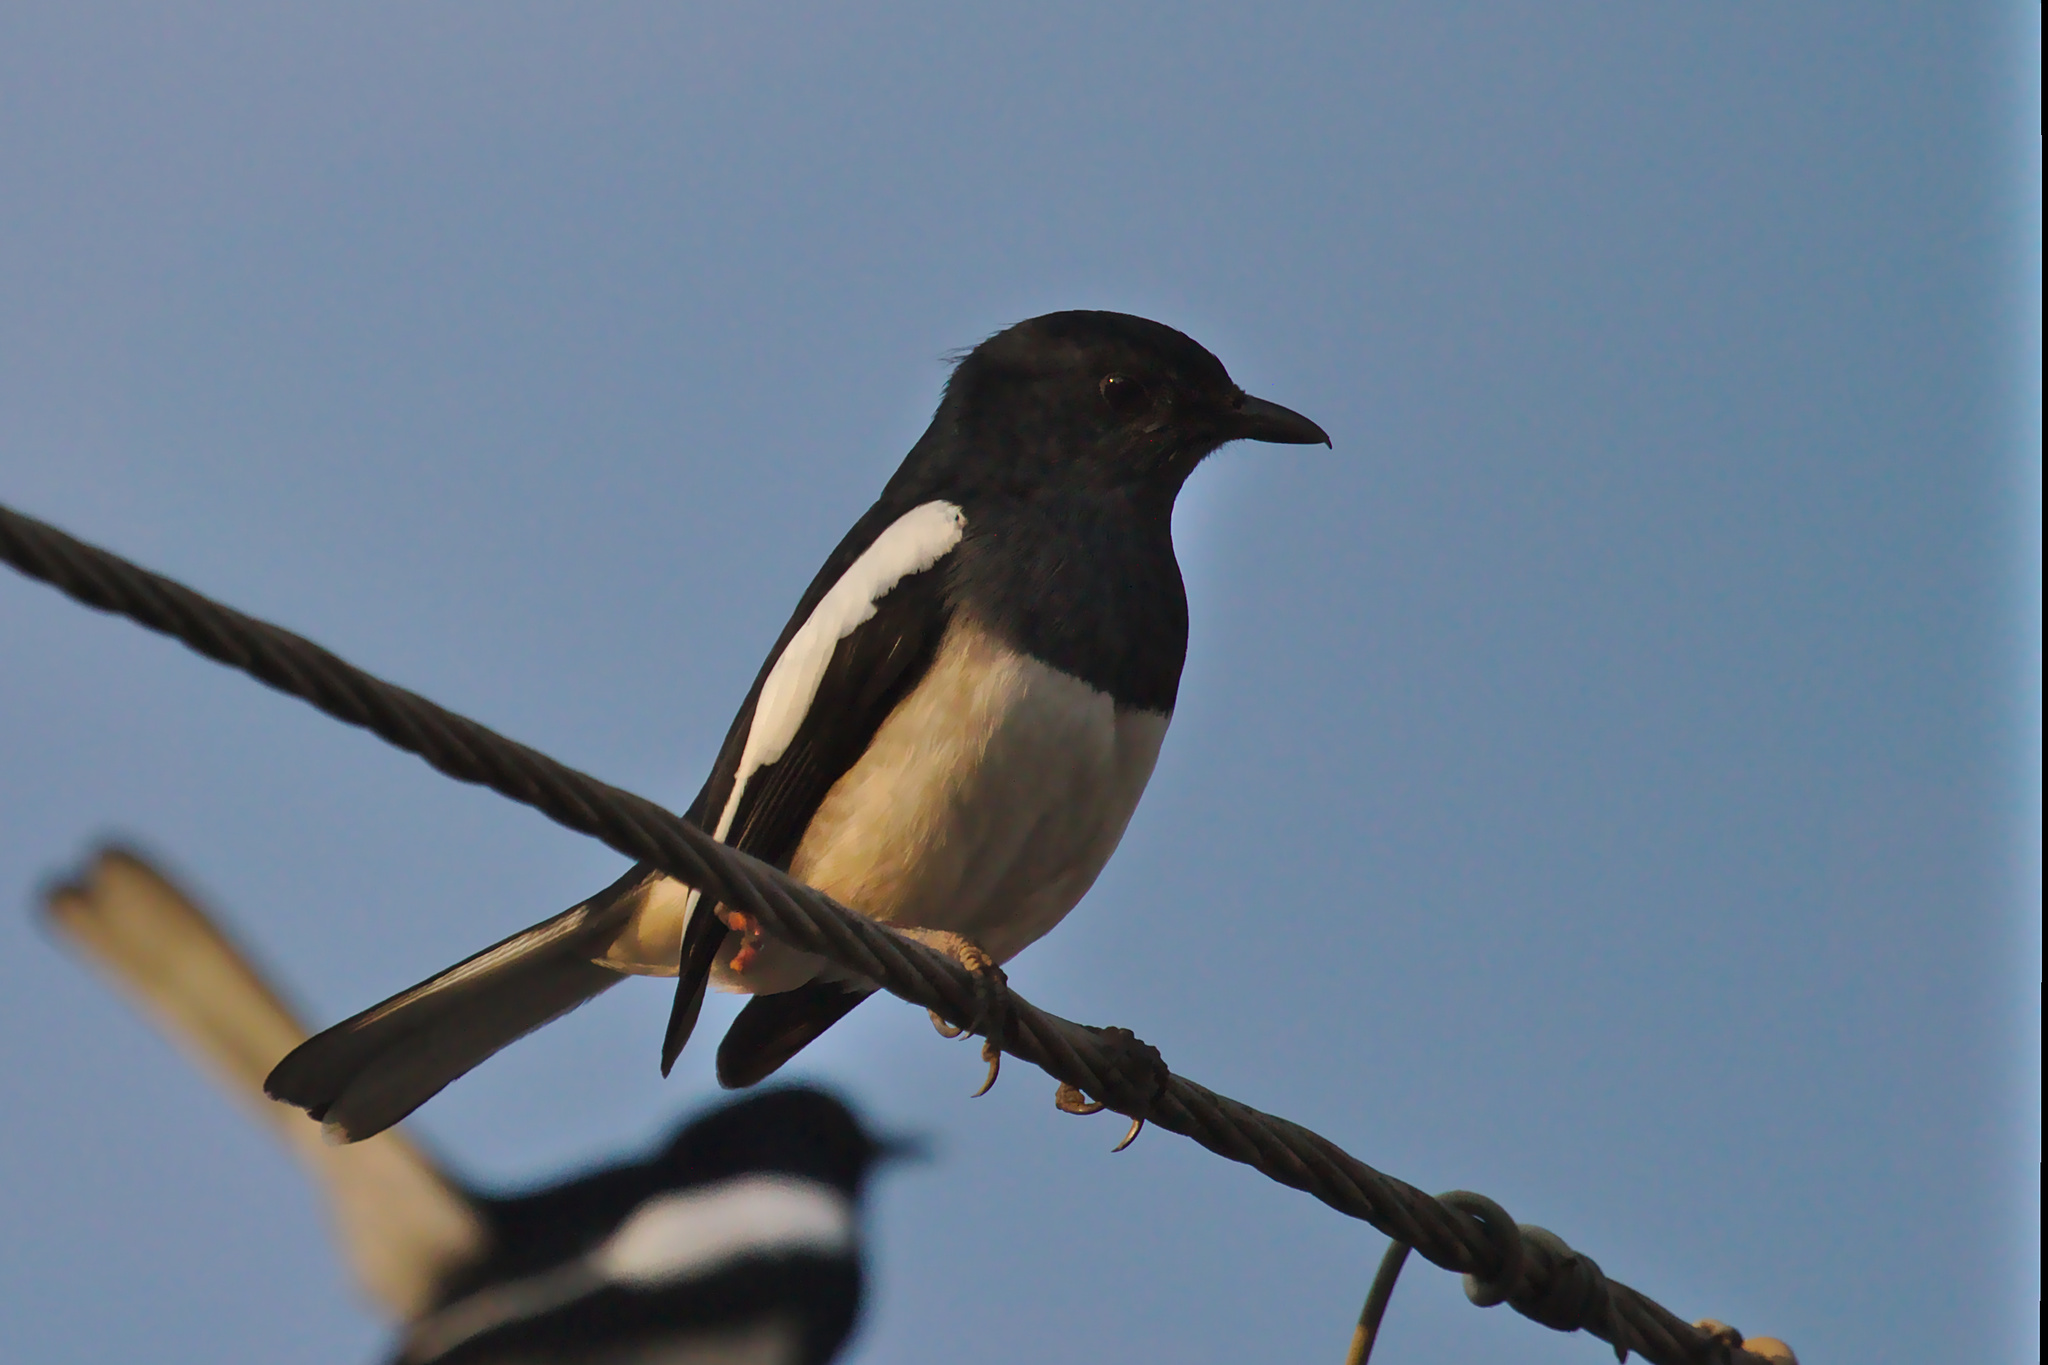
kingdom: Animalia
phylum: Chordata
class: Aves
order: Passeriformes
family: Muscicapidae
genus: Copsychus
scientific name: Copsychus saularis
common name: Oriental magpie-robin
